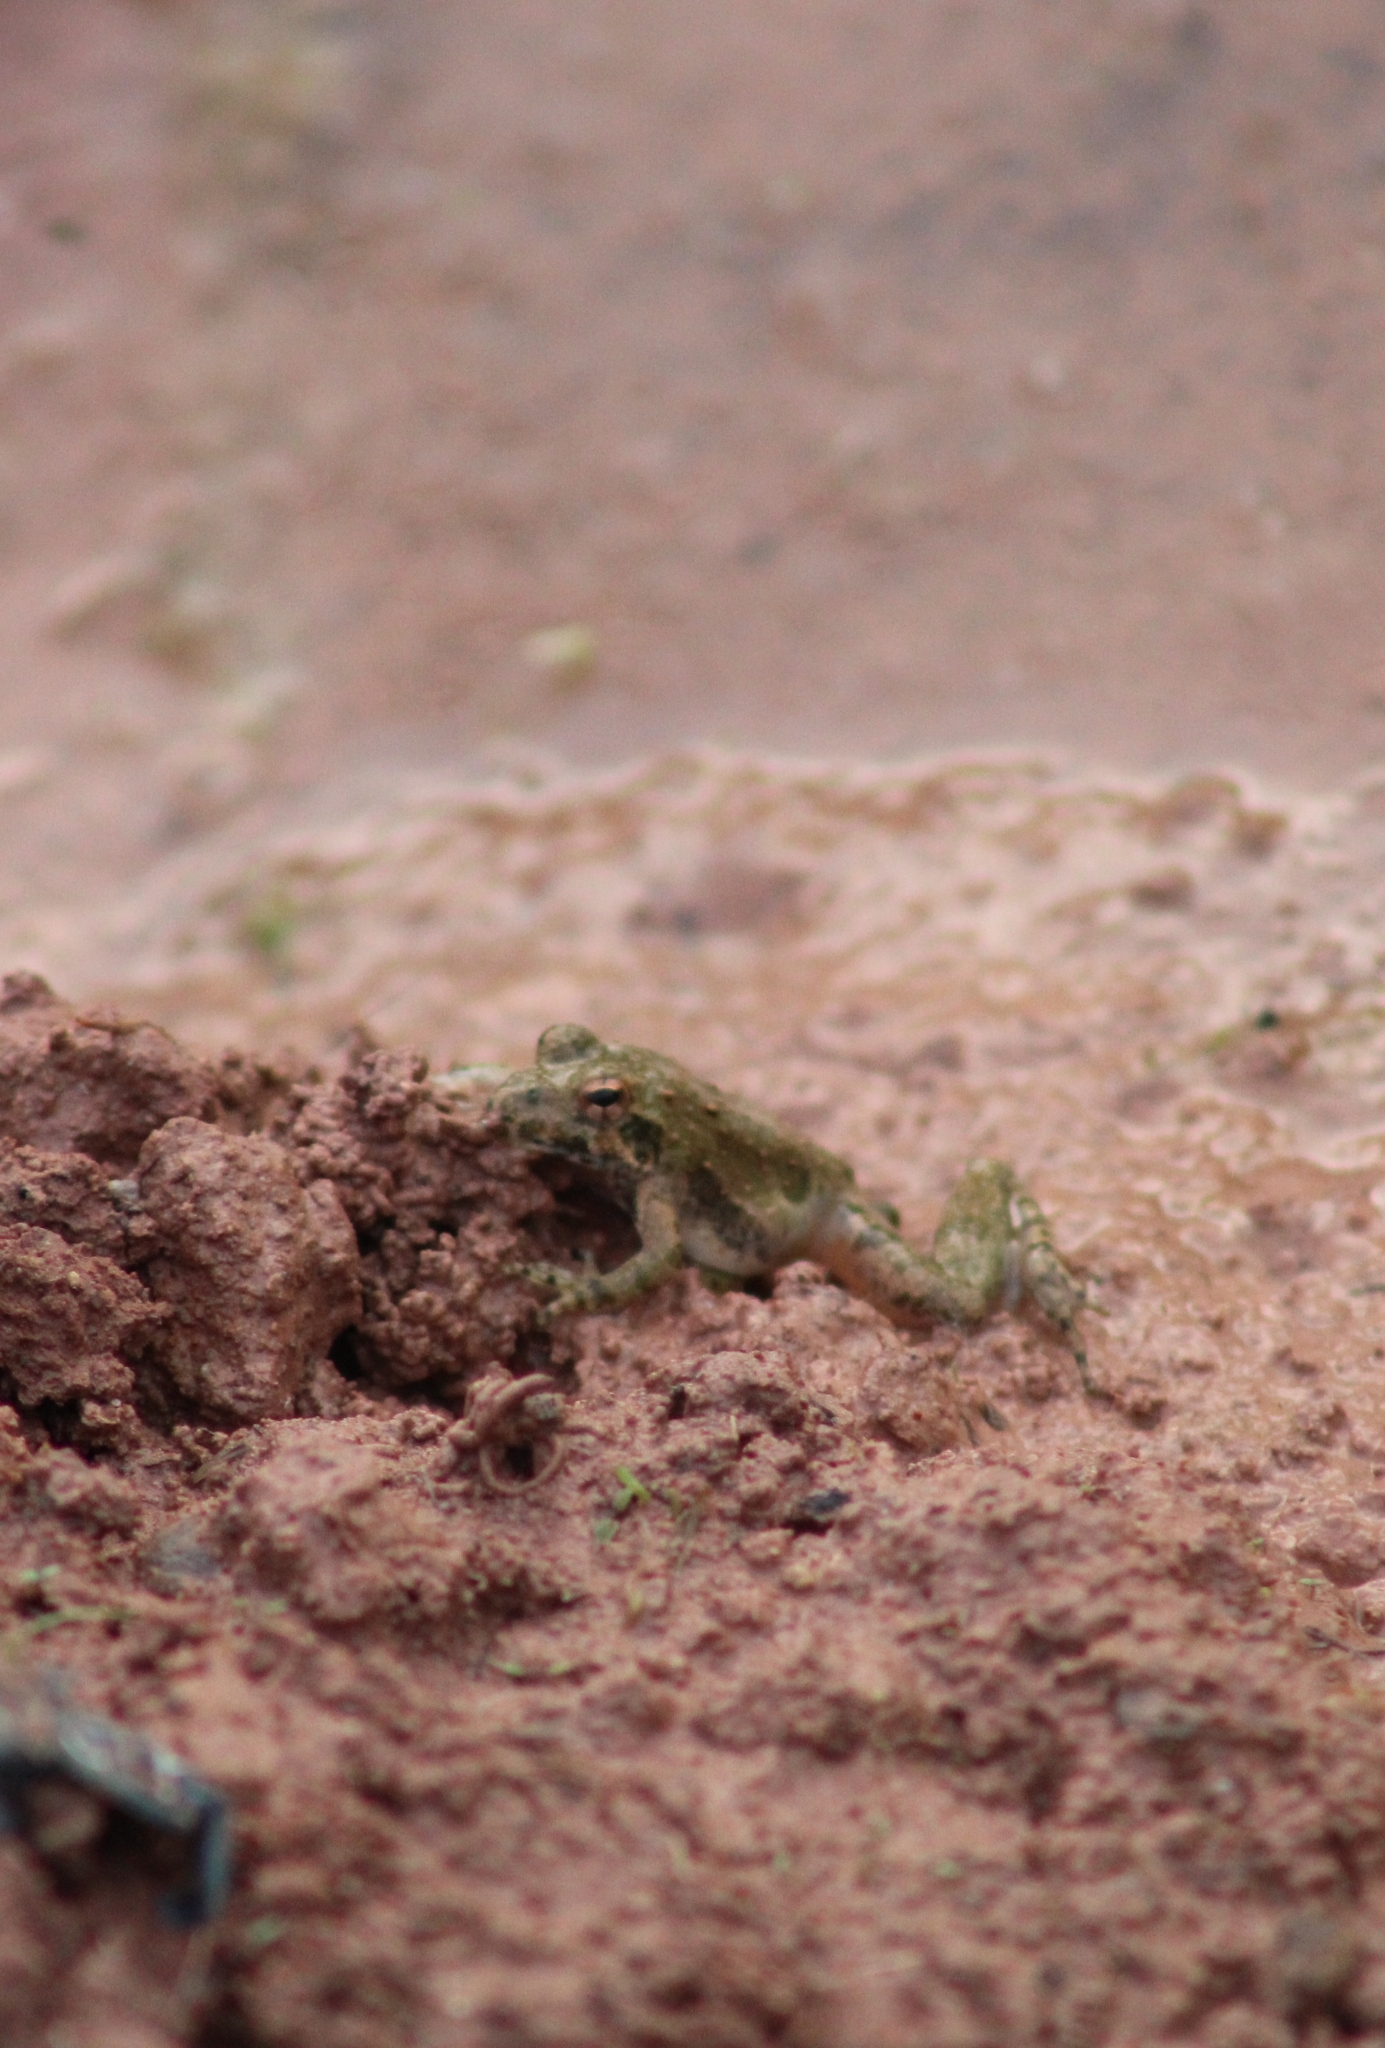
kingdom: Animalia
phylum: Chordata
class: Amphibia
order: Anura
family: Hylidae
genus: Acris
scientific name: Acris blanchardi
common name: Blanchard's cricket frog
